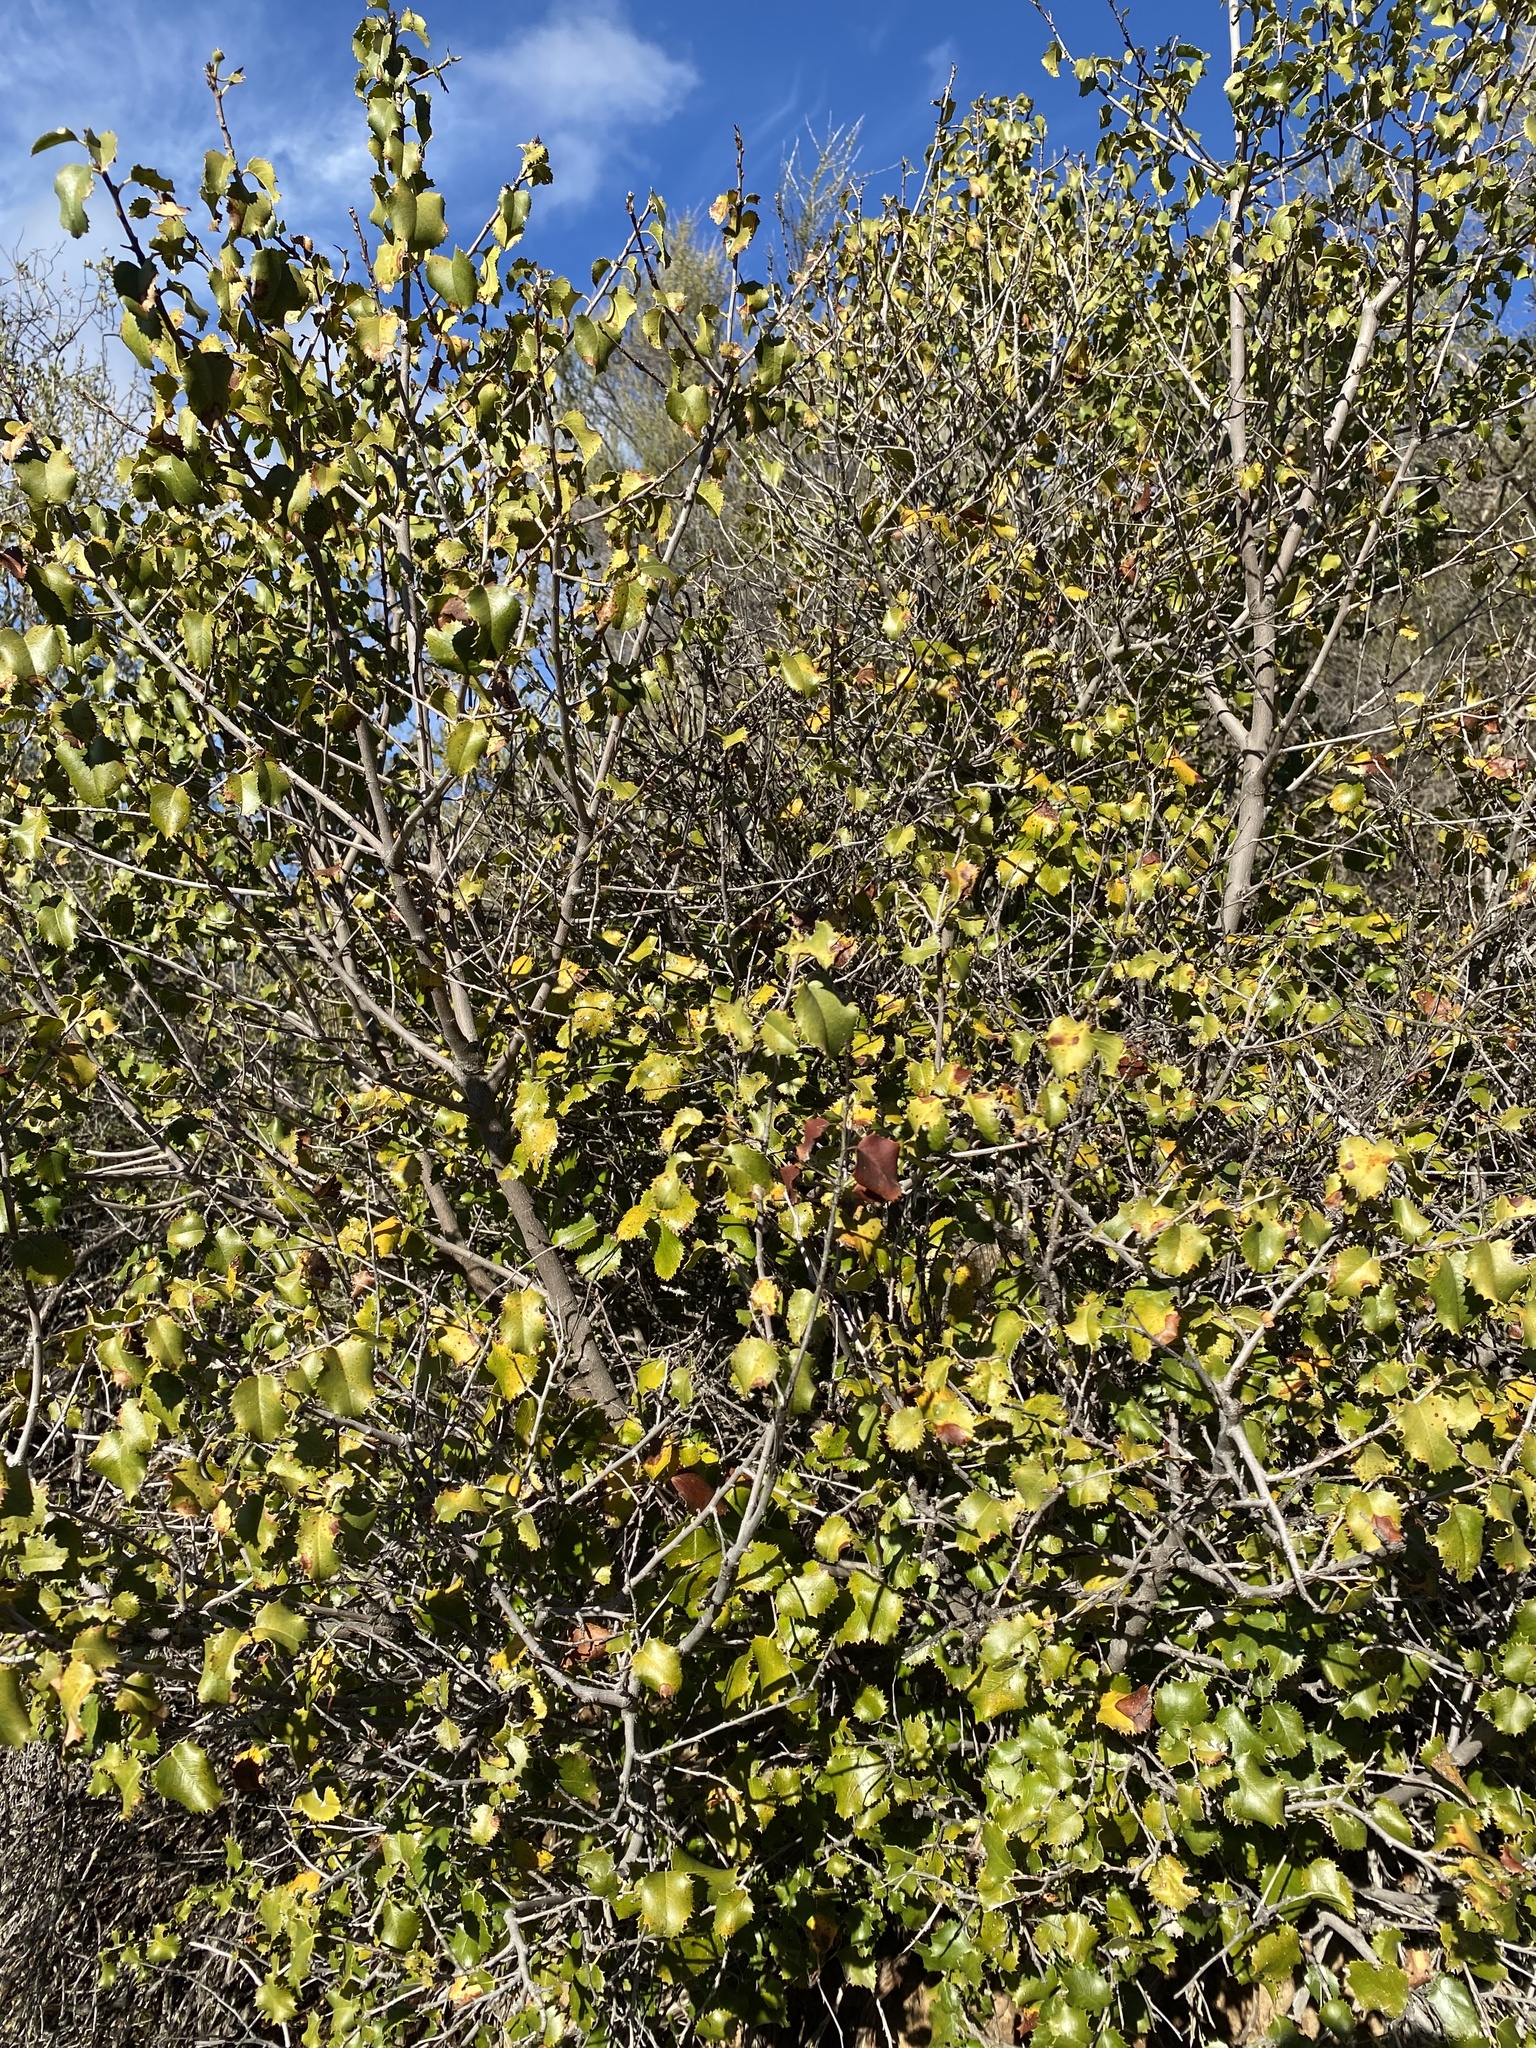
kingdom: Plantae
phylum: Tracheophyta
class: Magnoliopsida
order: Rosales
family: Rosaceae
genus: Prunus
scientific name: Prunus ilicifolia
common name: Hollyleaf cherry
